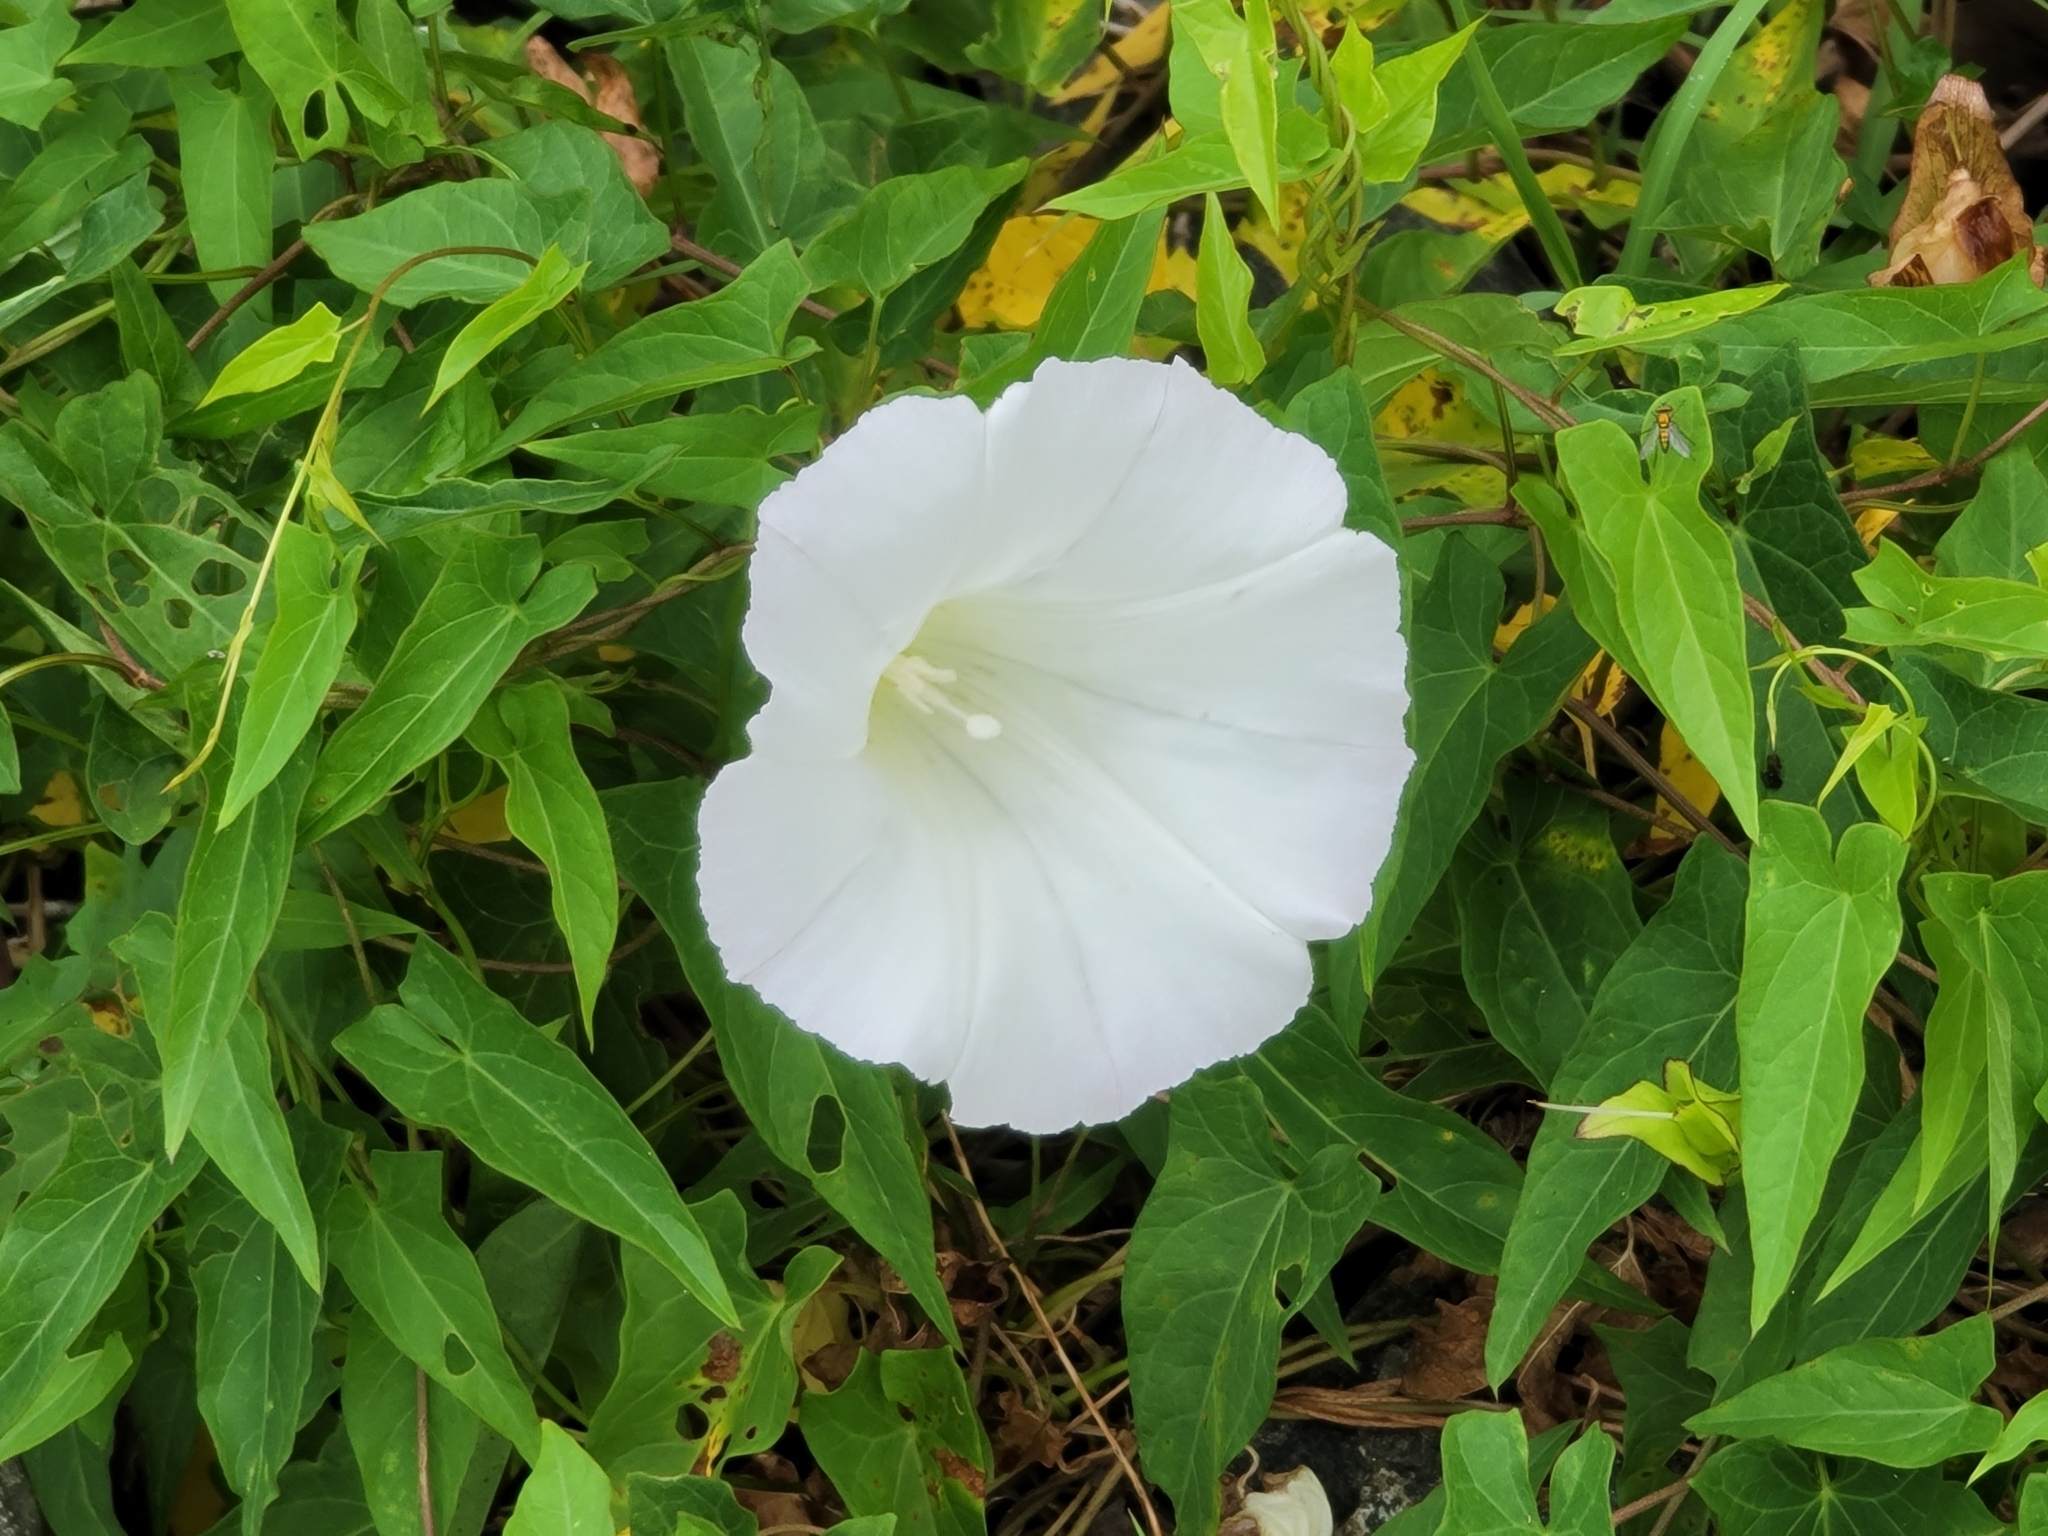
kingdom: Plantae
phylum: Tracheophyta
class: Magnoliopsida
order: Solanales
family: Convolvulaceae
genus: Calystegia
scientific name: Calystegia sepium
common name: Hedge bindweed
